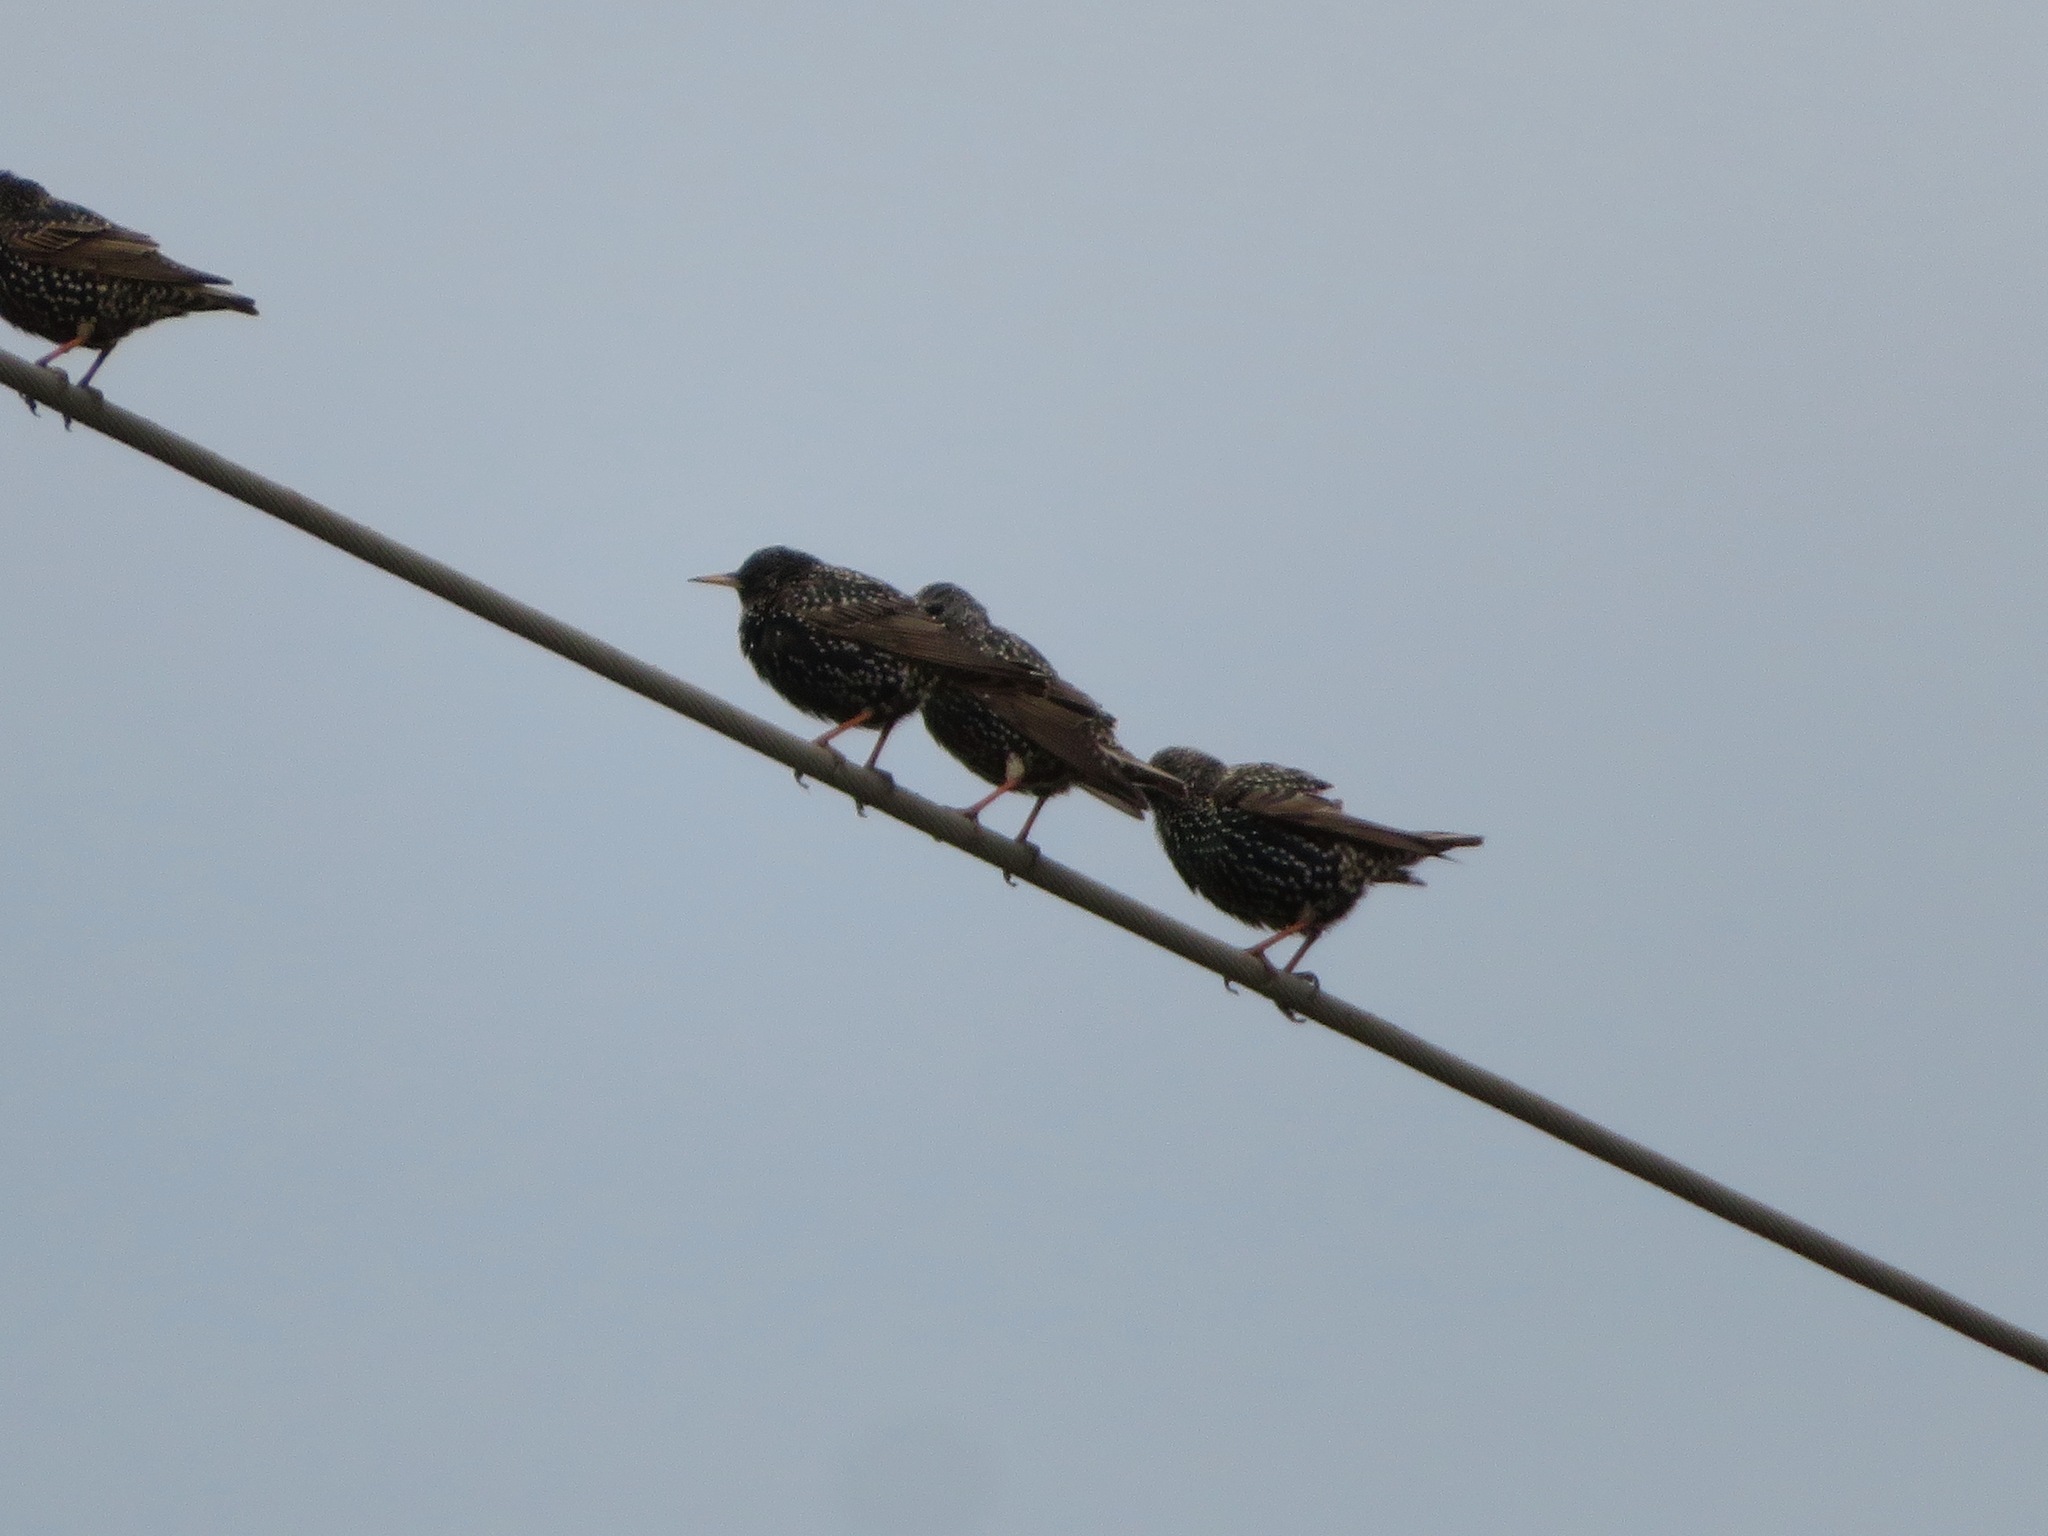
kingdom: Animalia
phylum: Chordata
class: Aves
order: Passeriformes
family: Sturnidae
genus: Sturnus
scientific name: Sturnus vulgaris
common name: Common starling
